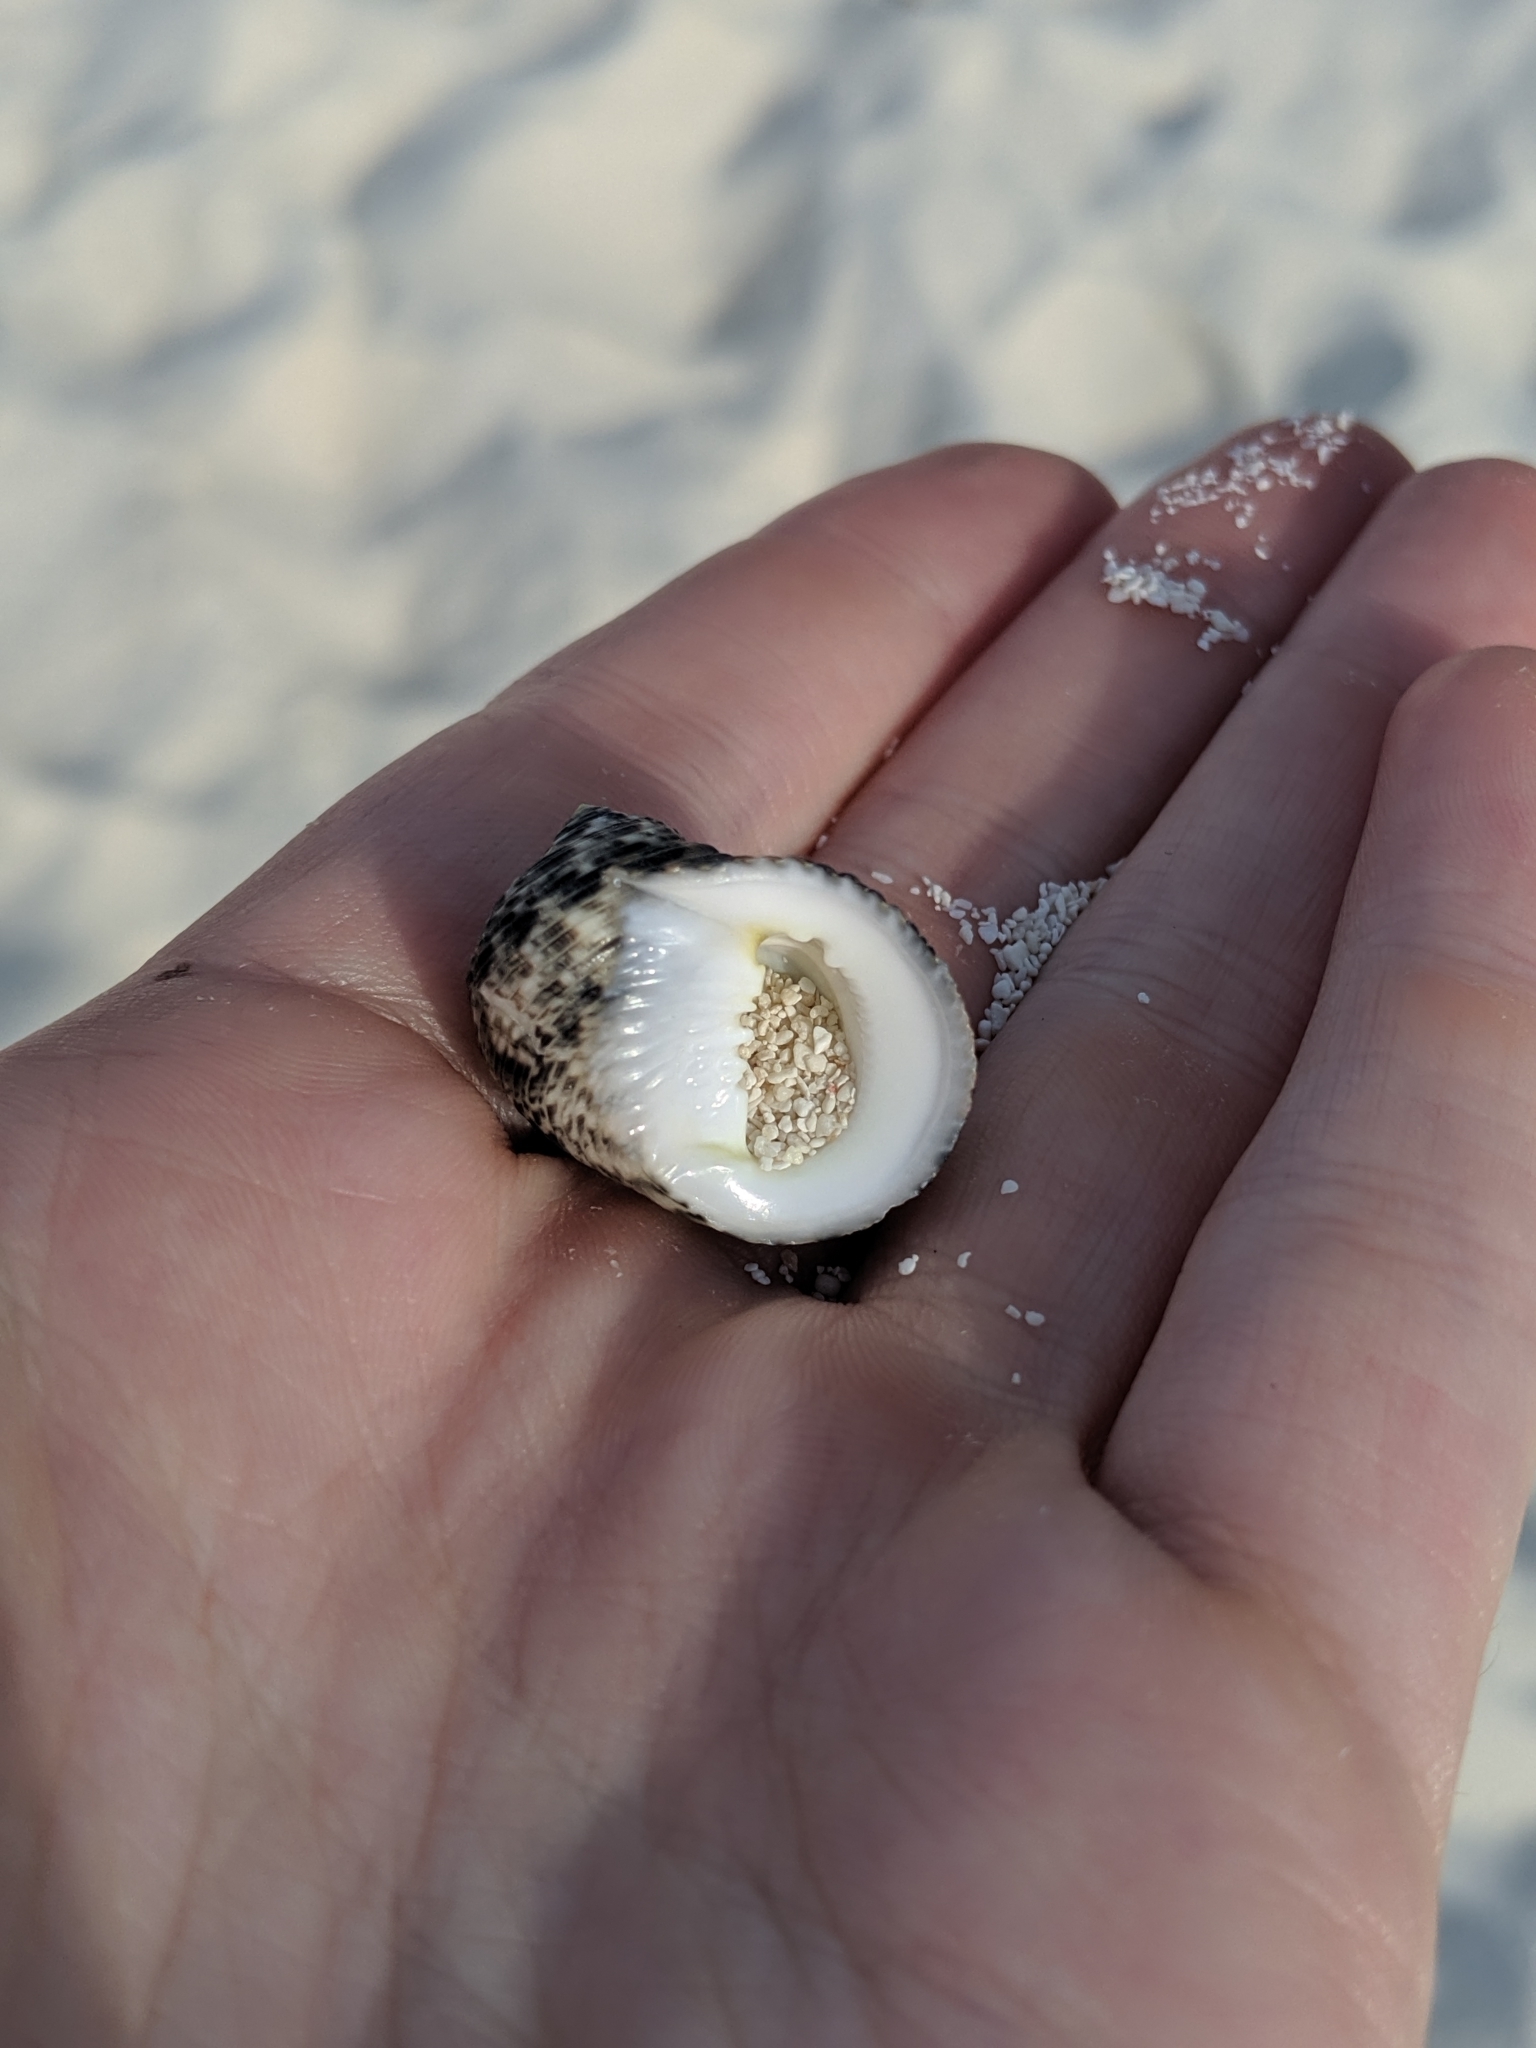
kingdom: Animalia
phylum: Mollusca
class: Gastropoda
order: Cycloneritida
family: Neritidae
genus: Nerita
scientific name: Nerita undata
